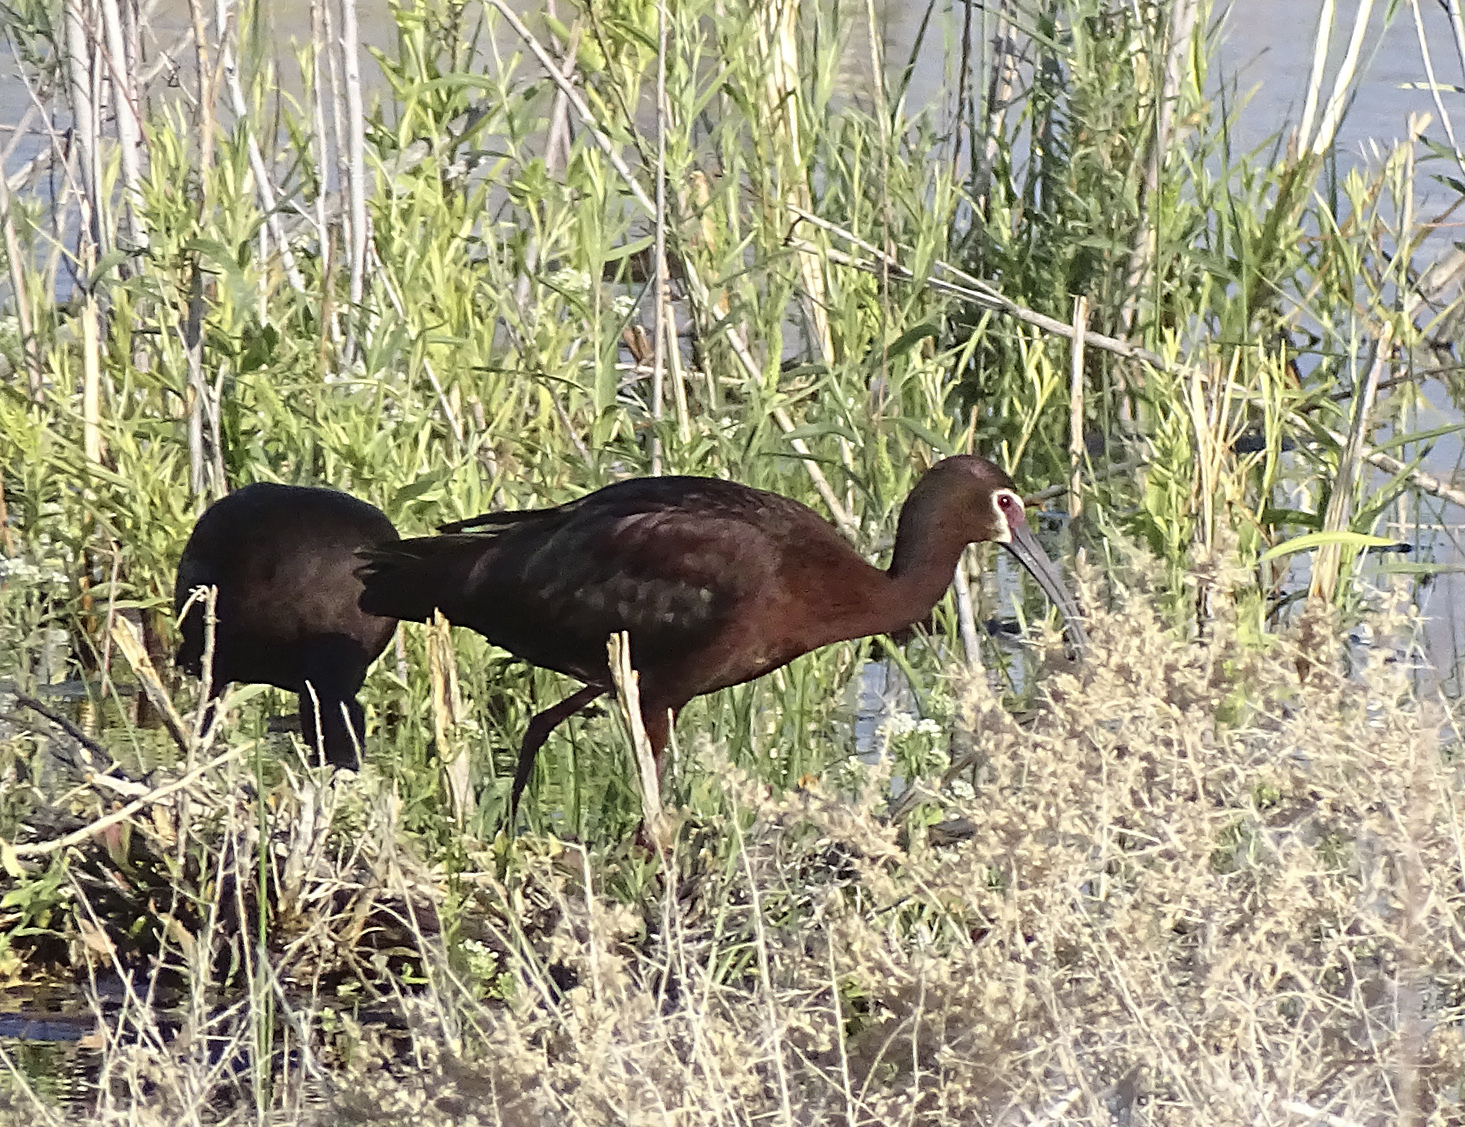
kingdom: Animalia
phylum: Chordata
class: Aves
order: Pelecaniformes
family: Threskiornithidae
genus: Plegadis
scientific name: Plegadis chihi
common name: White-faced ibis
